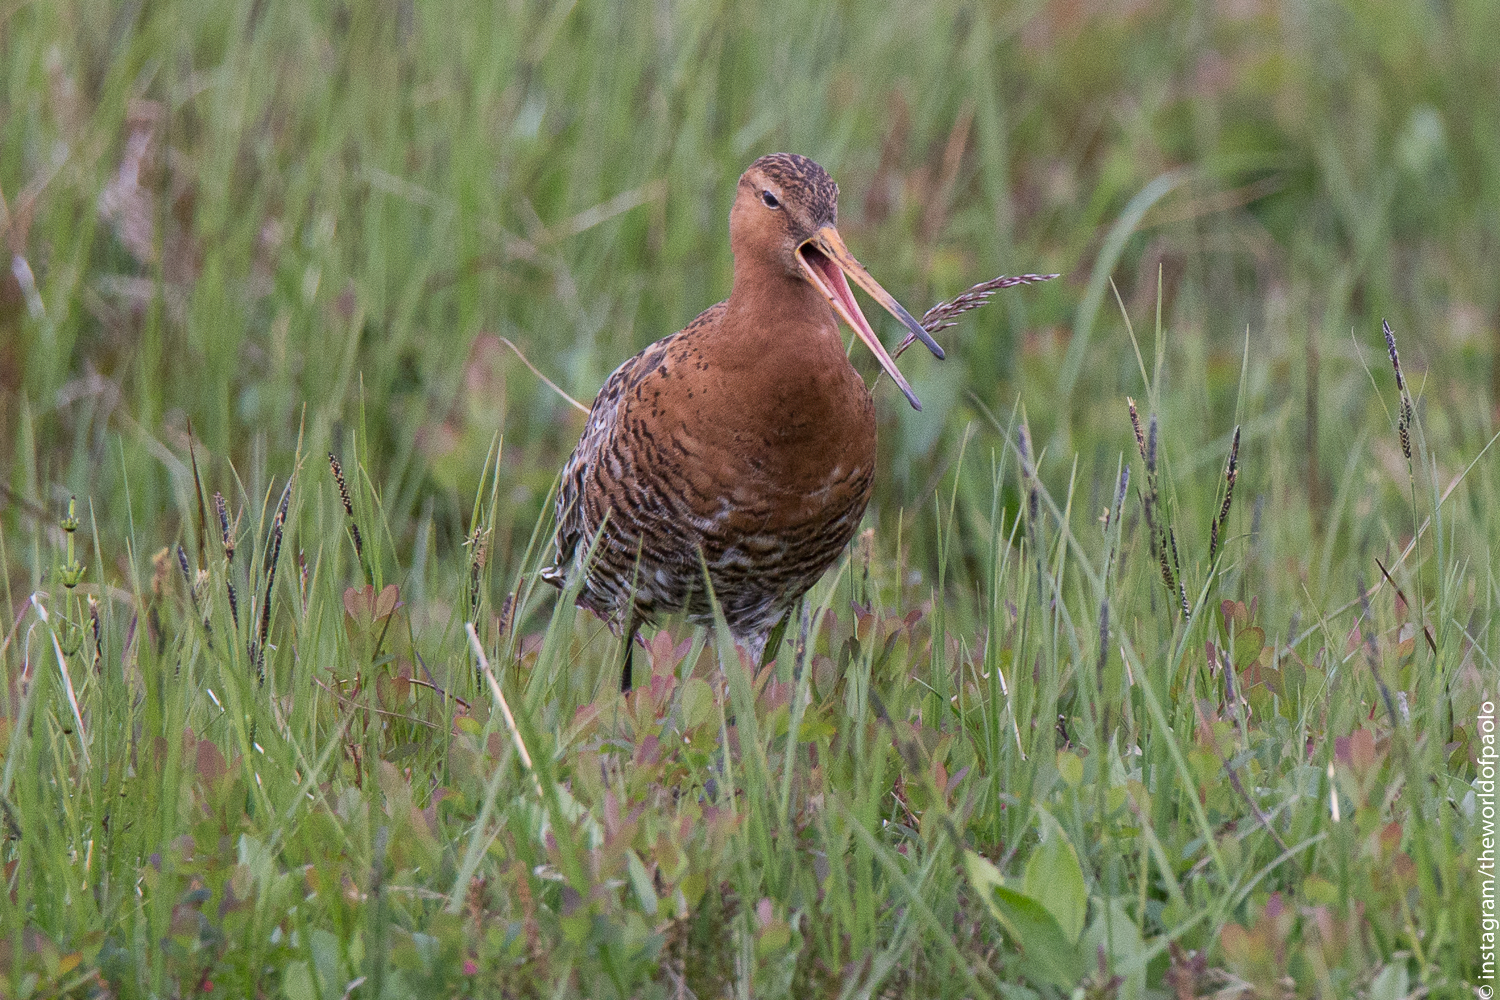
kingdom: Animalia
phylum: Chordata
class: Aves
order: Charadriiformes
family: Scolopacidae
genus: Limosa
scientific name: Limosa limosa
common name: Black-tailed godwit
